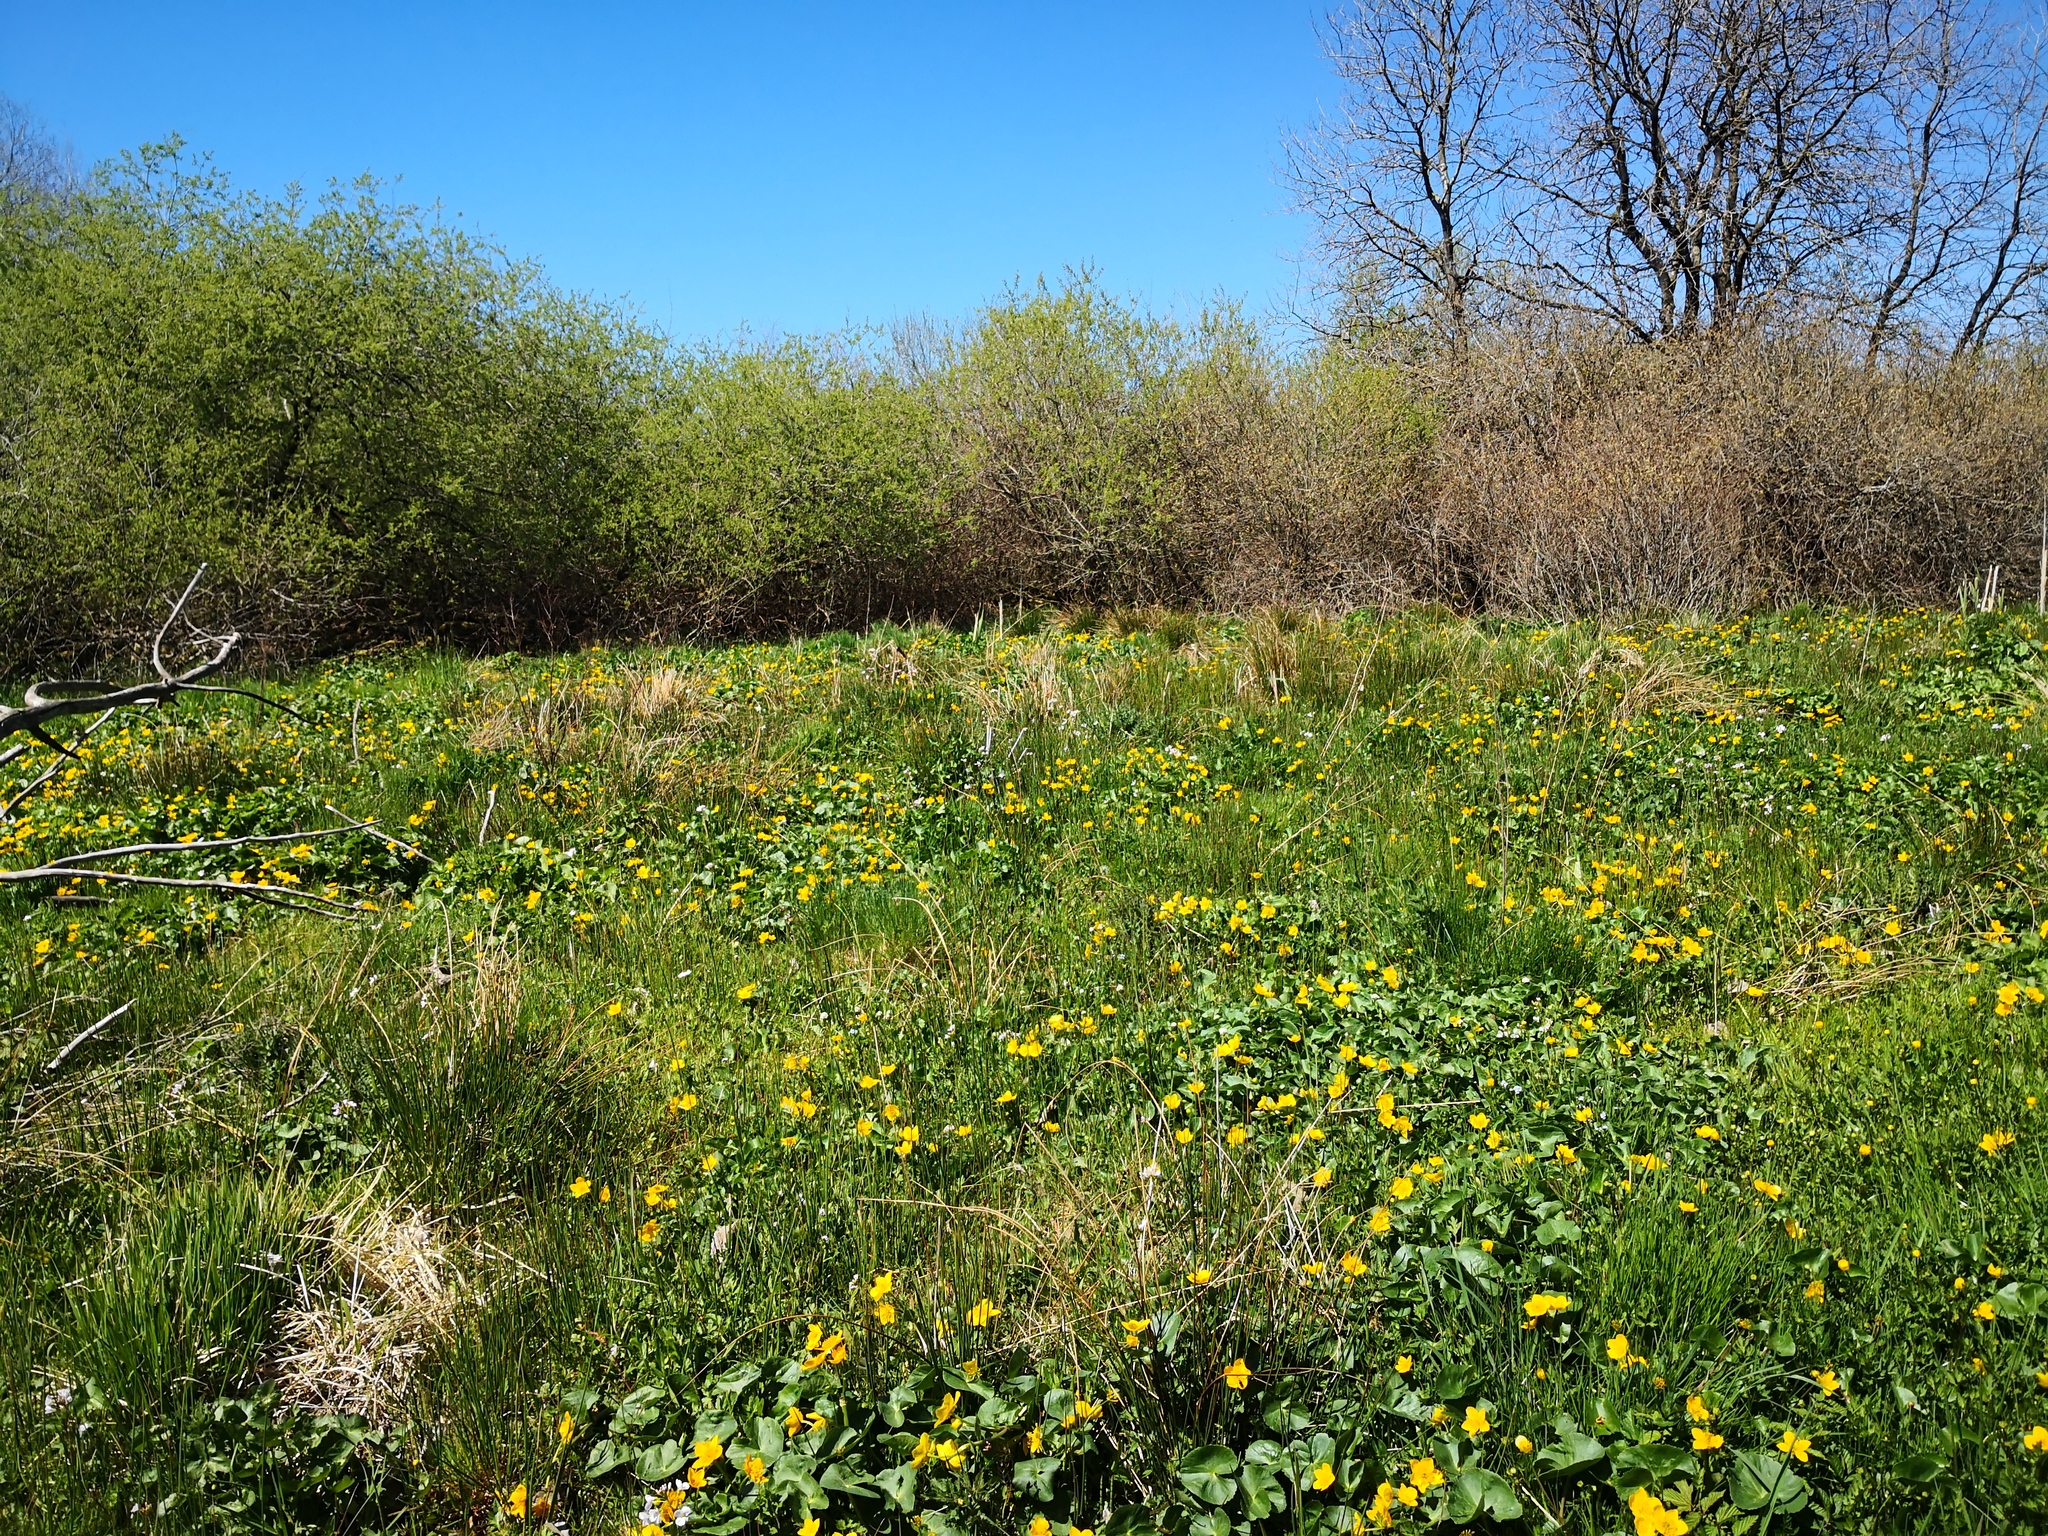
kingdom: Plantae
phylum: Tracheophyta
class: Magnoliopsida
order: Ranunculales
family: Ranunculaceae
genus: Caltha
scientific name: Caltha palustris
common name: Marsh marigold
